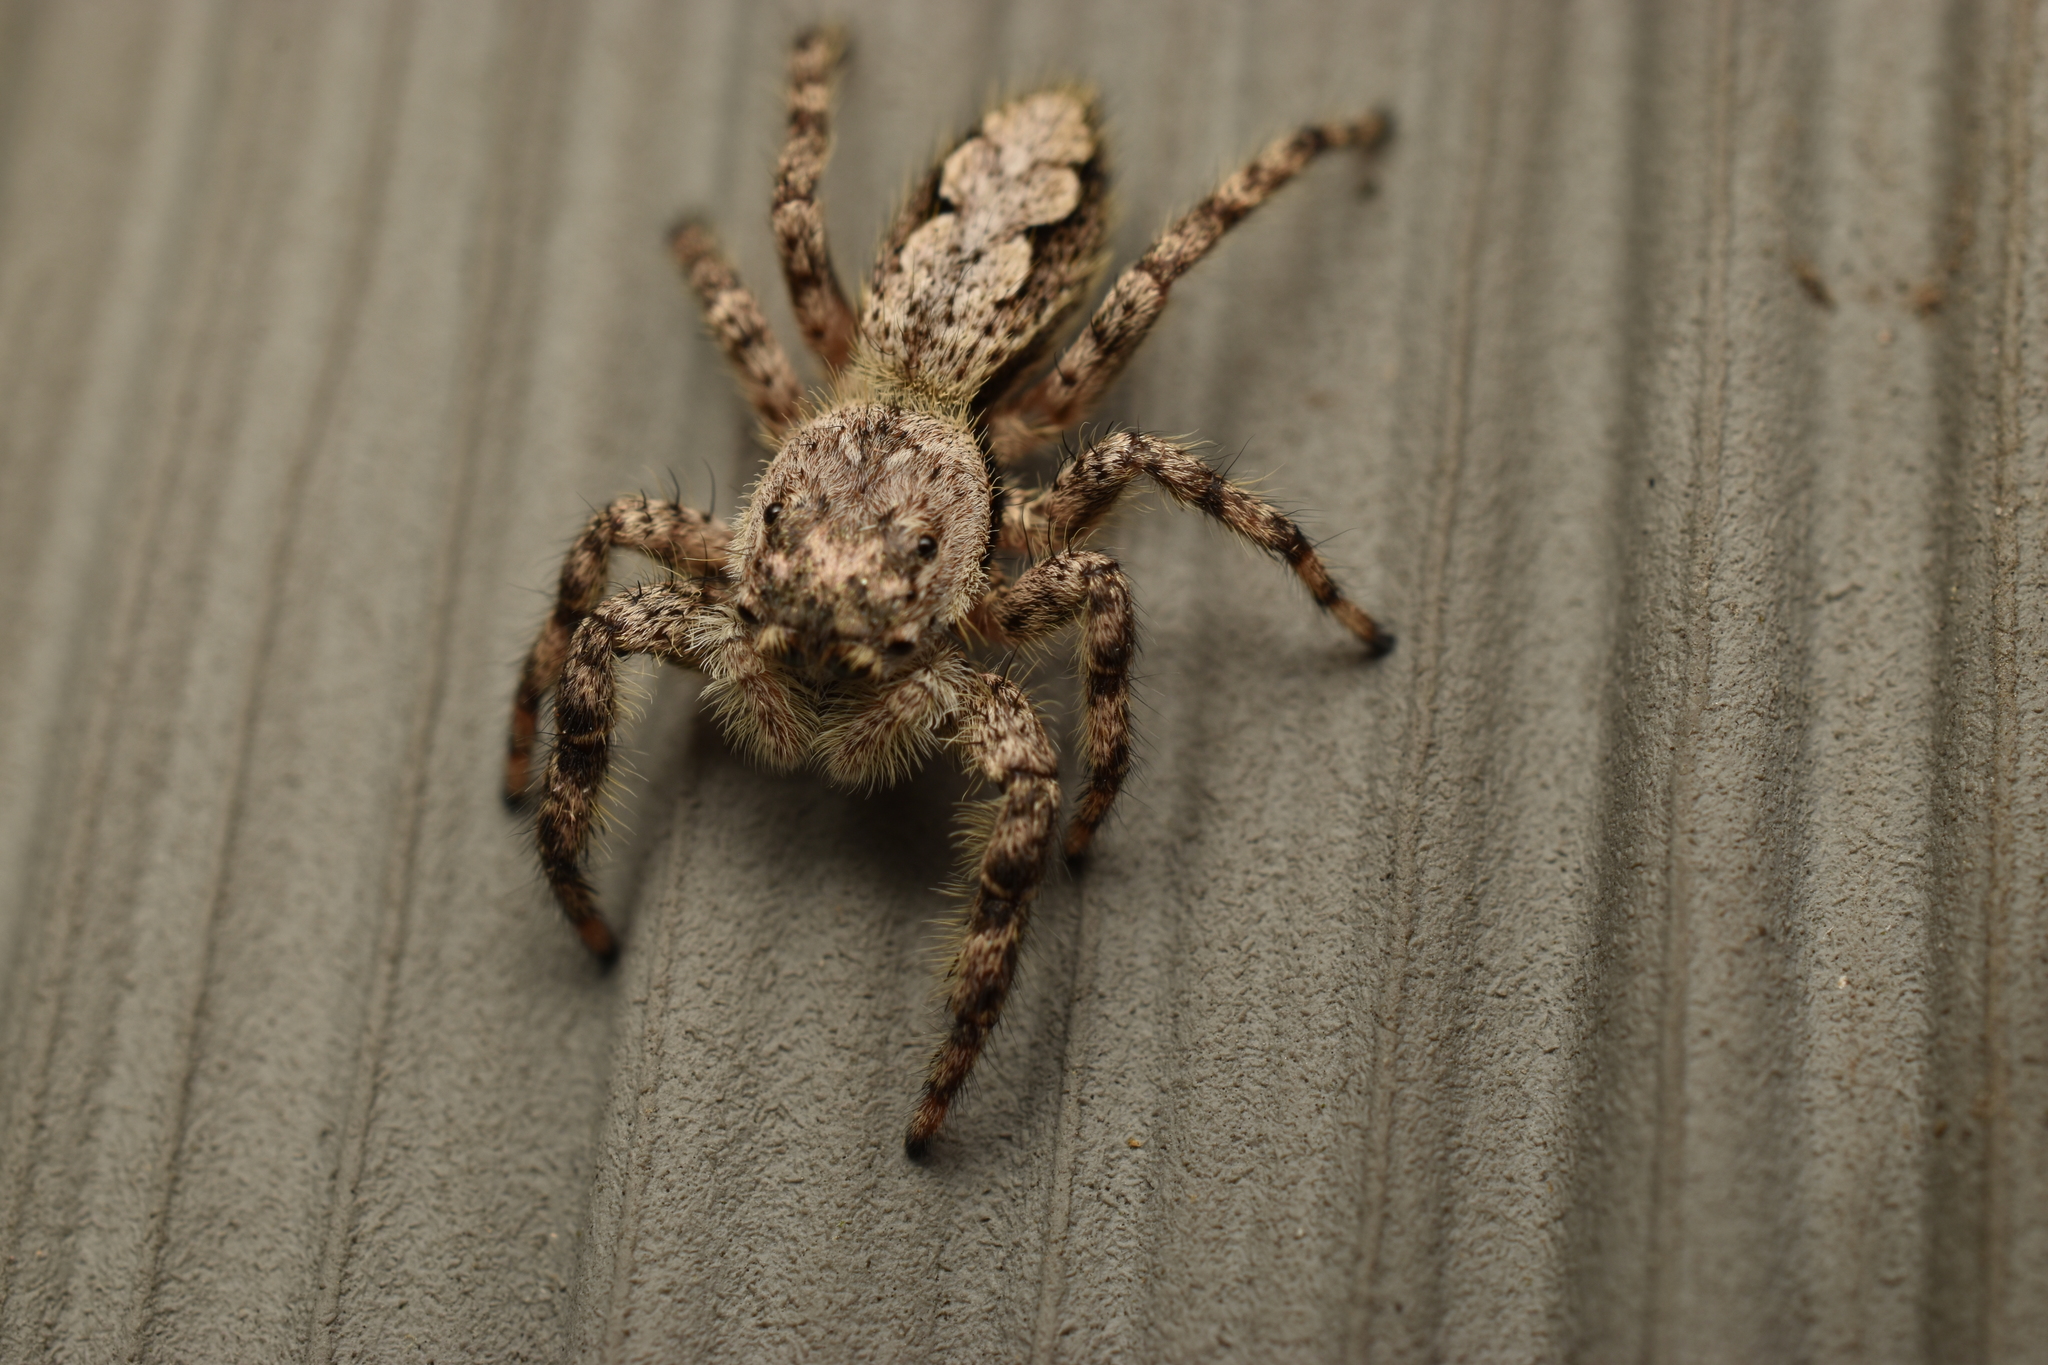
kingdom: Animalia
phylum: Arthropoda
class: Arachnida
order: Araneae
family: Salticidae
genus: Platycryptus
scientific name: Platycryptus undatus
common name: Tan jumping spider
